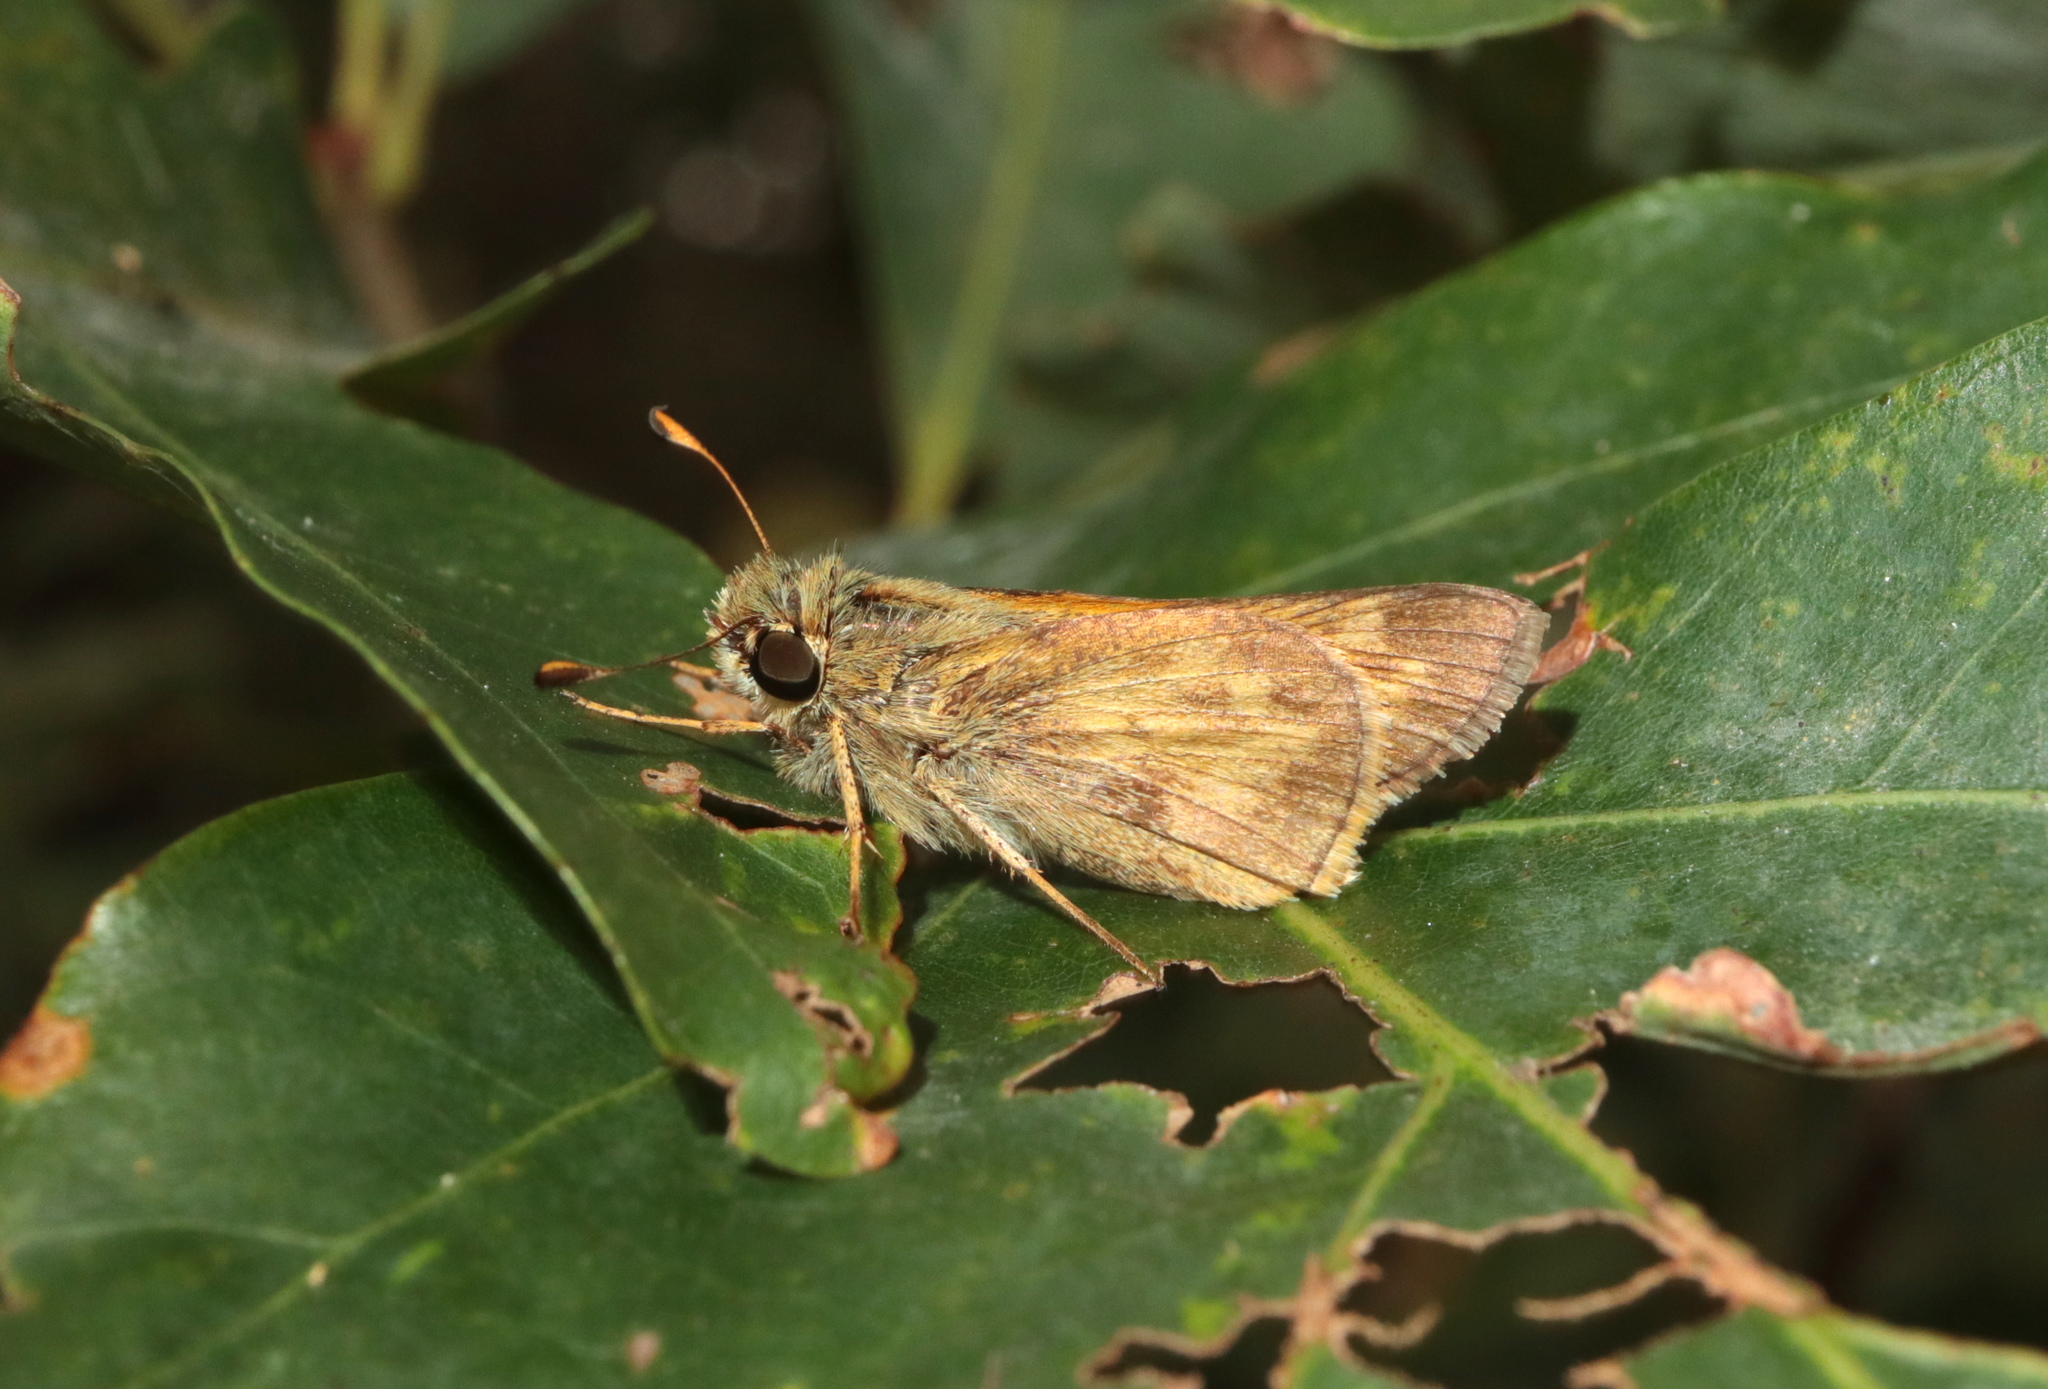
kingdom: Animalia
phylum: Arthropoda
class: Insecta
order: Lepidoptera
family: Hesperiidae
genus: Atalopedes
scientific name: Atalopedes
